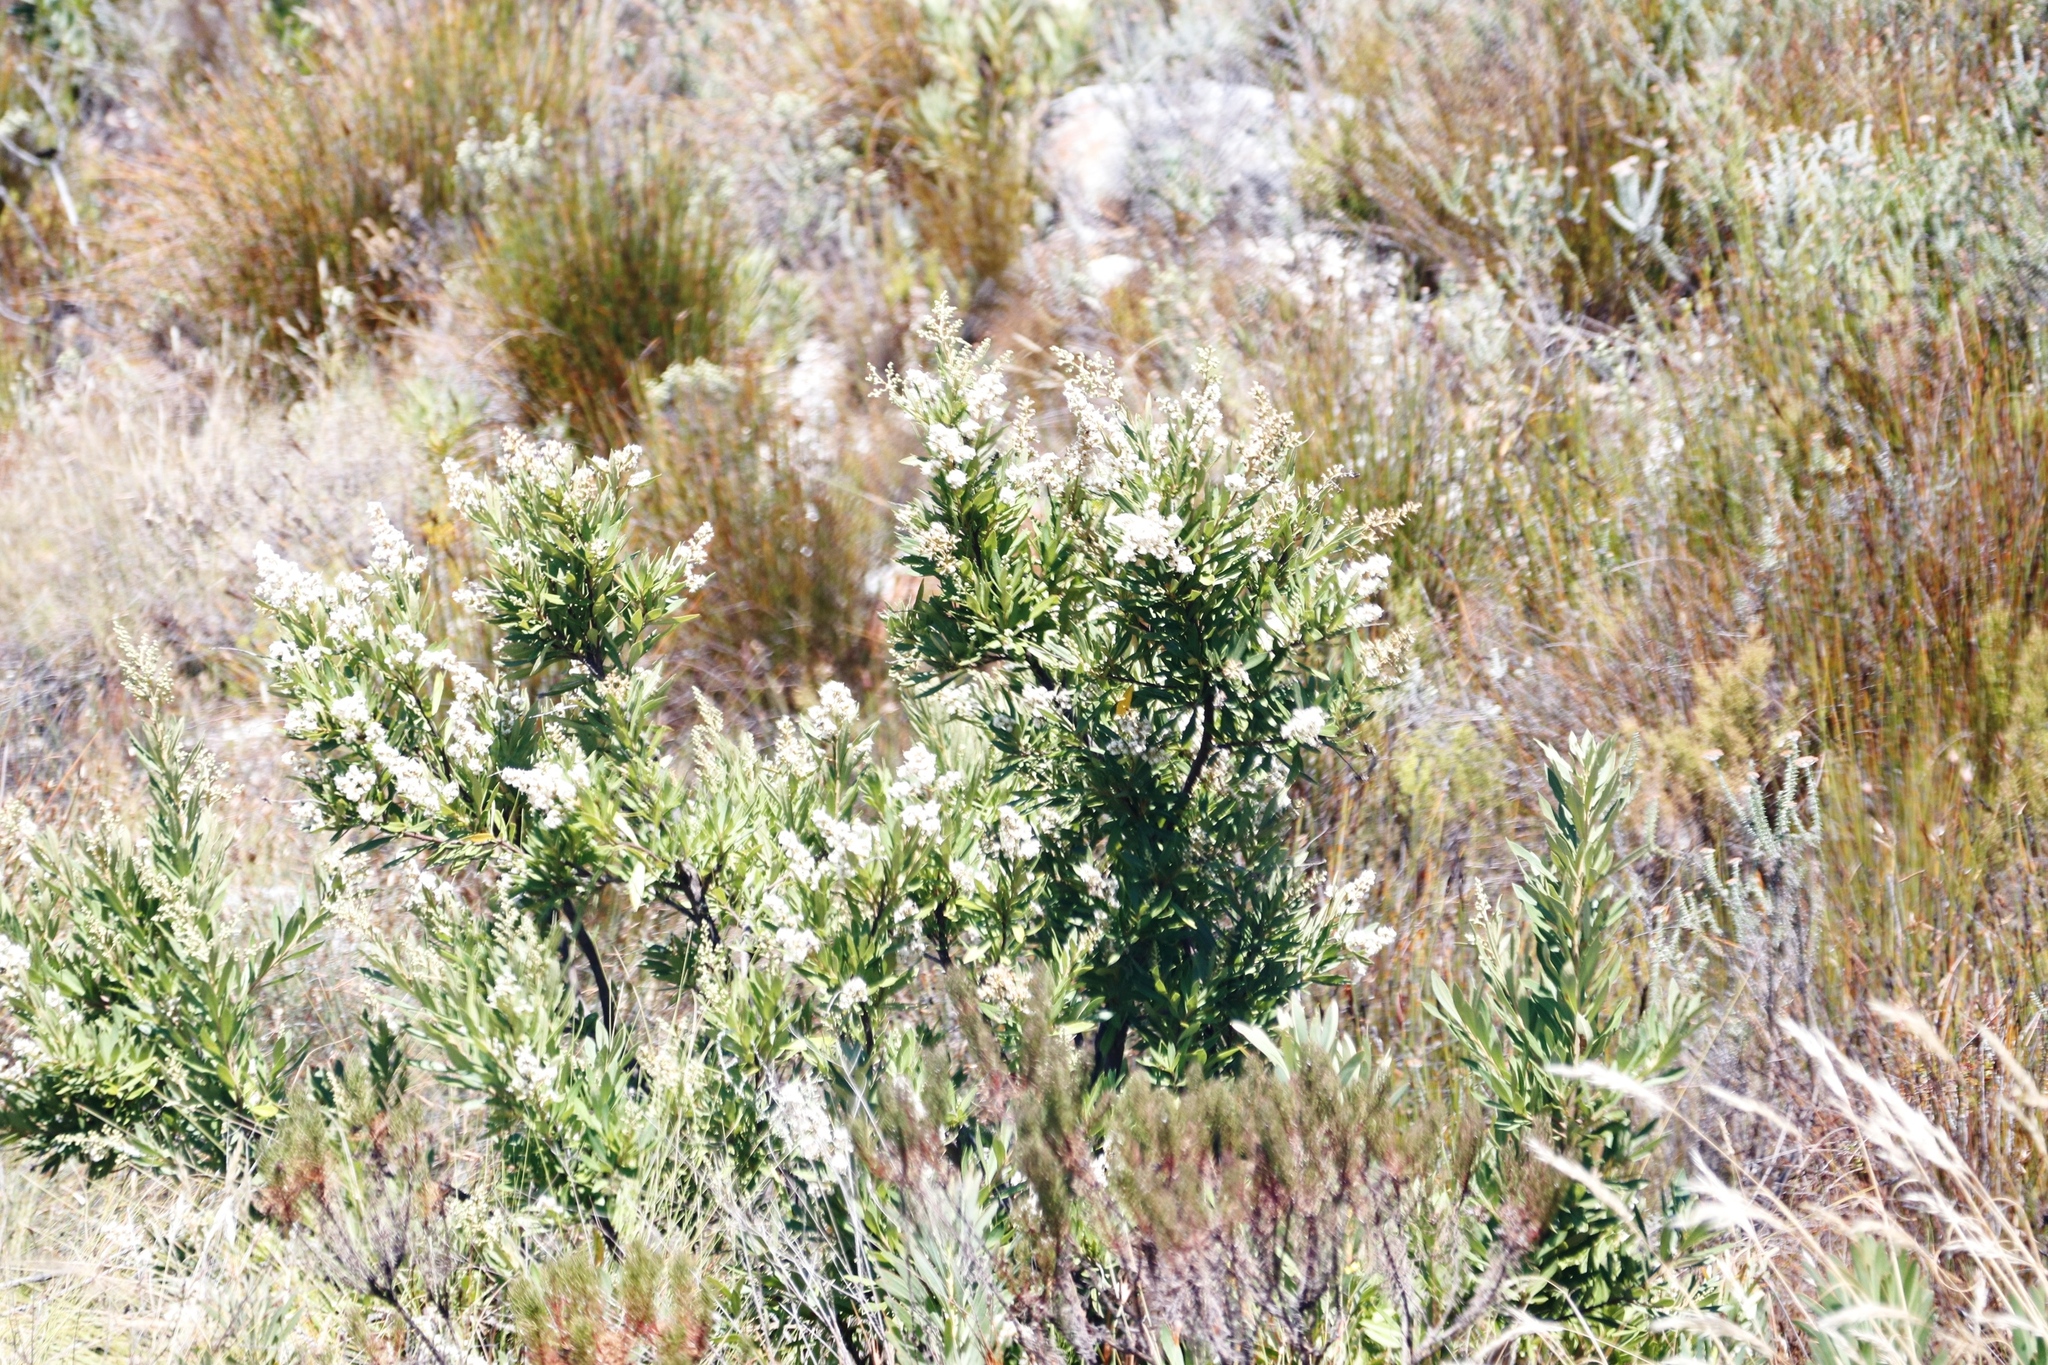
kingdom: Plantae
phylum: Tracheophyta
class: Magnoliopsida
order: Asterales
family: Asteraceae
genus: Brachylaena
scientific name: Brachylaena neriifolia
